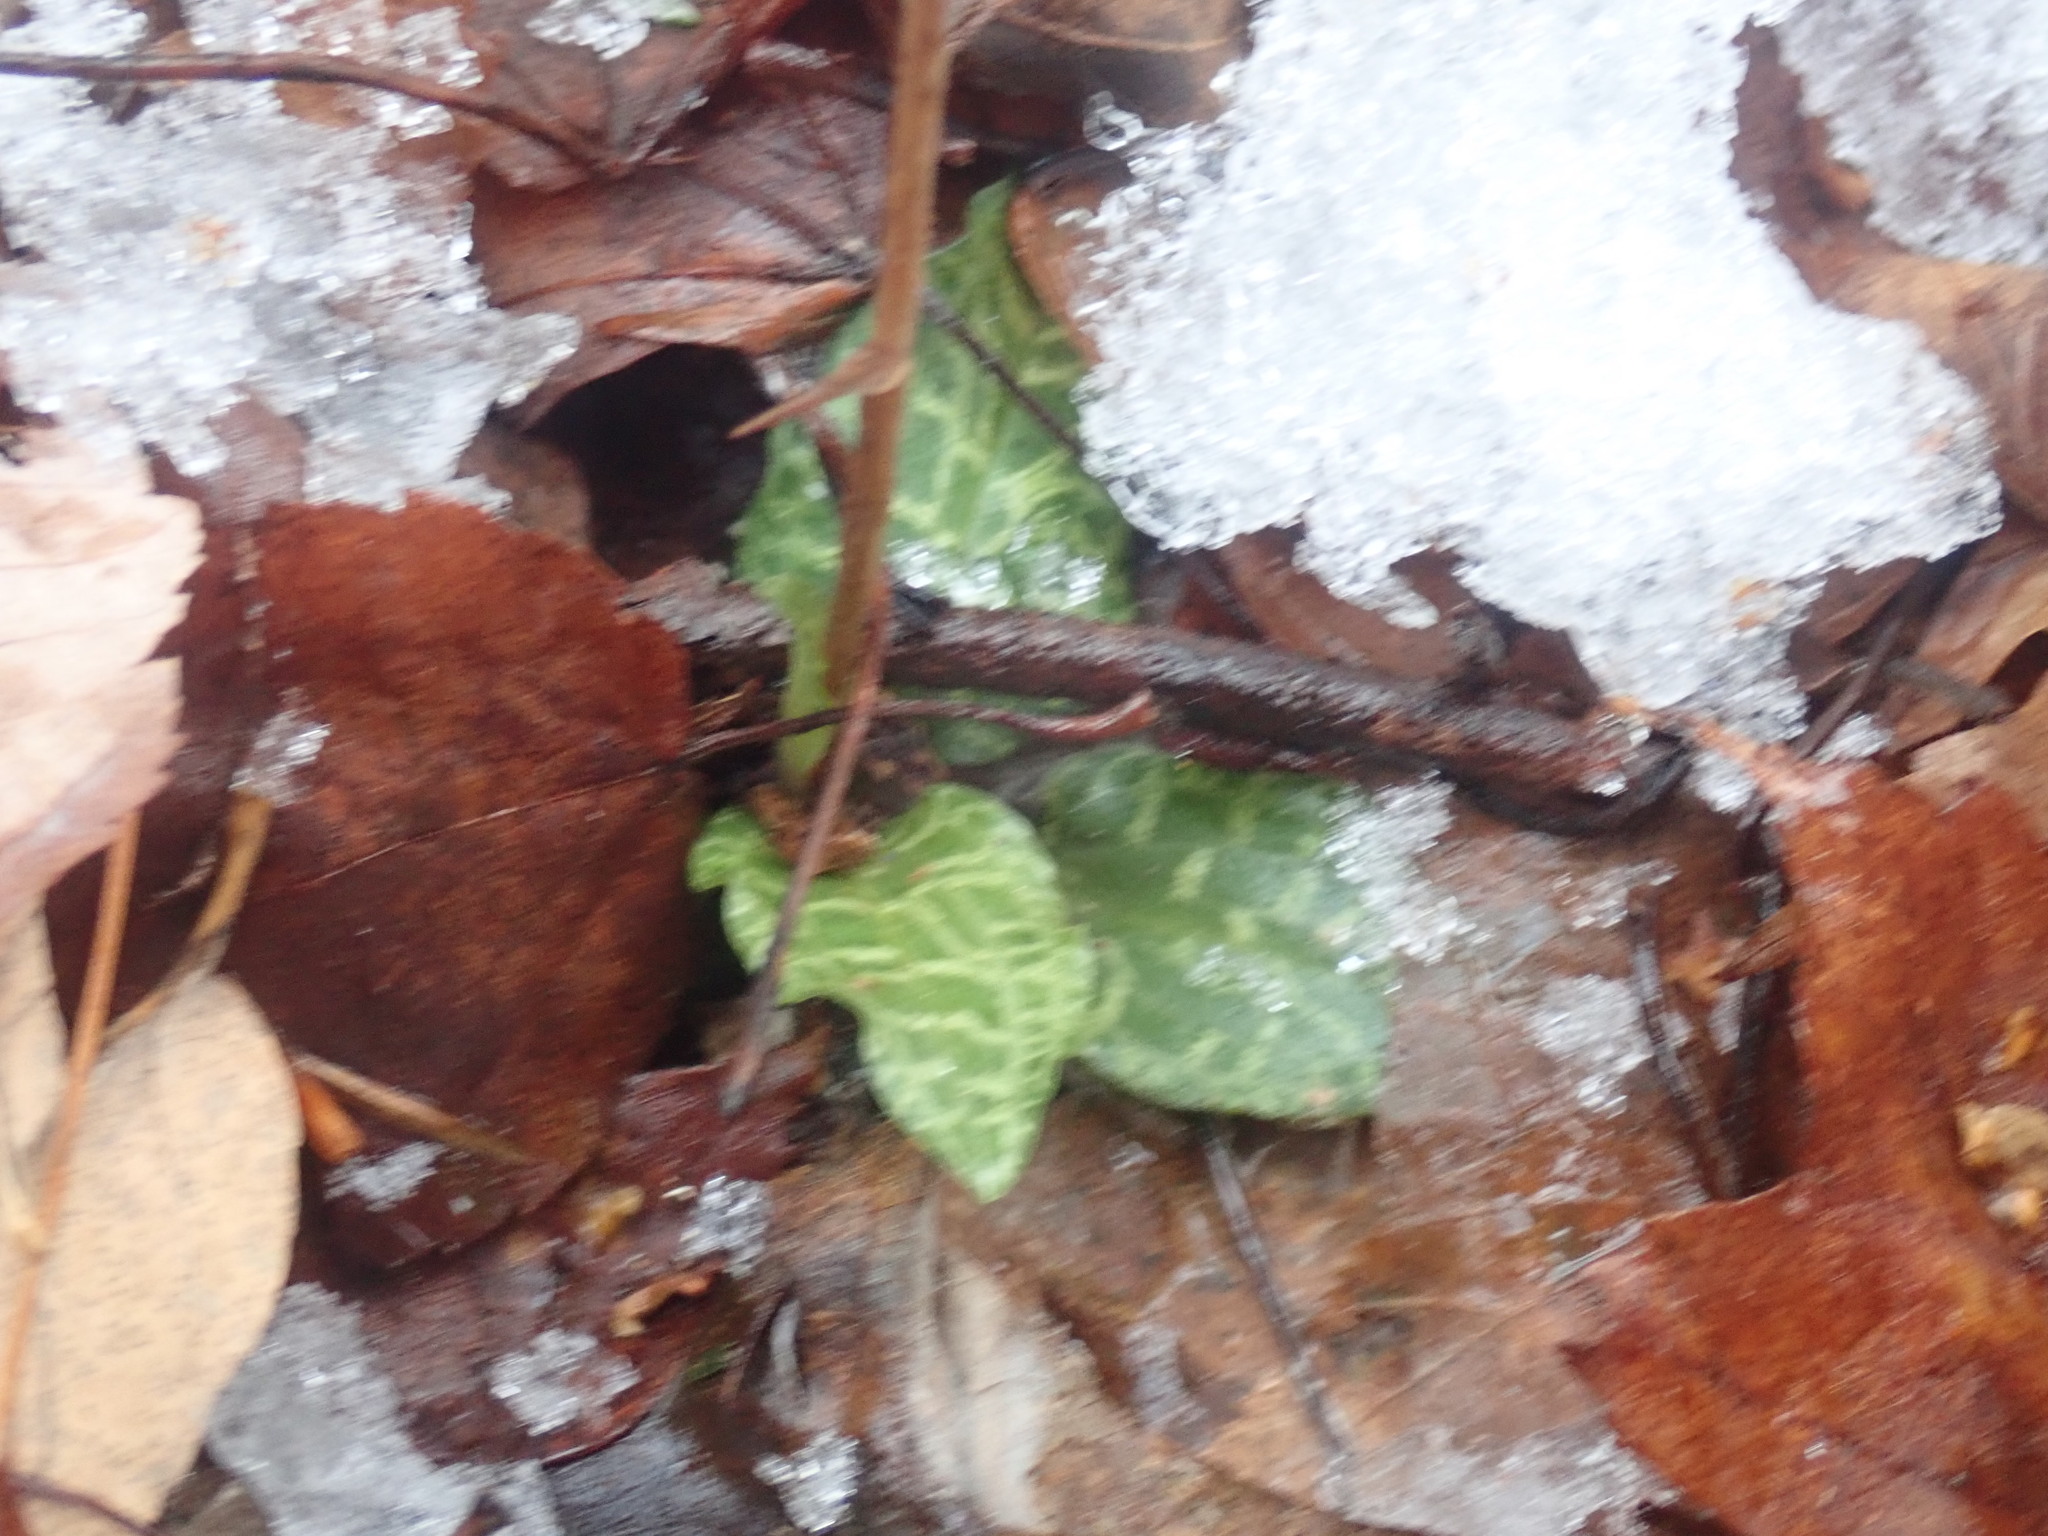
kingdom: Plantae
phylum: Tracheophyta
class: Liliopsida
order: Asparagales
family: Orchidaceae
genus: Goodyera
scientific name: Goodyera tesselata
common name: Checkered rattlesnake-plantain
